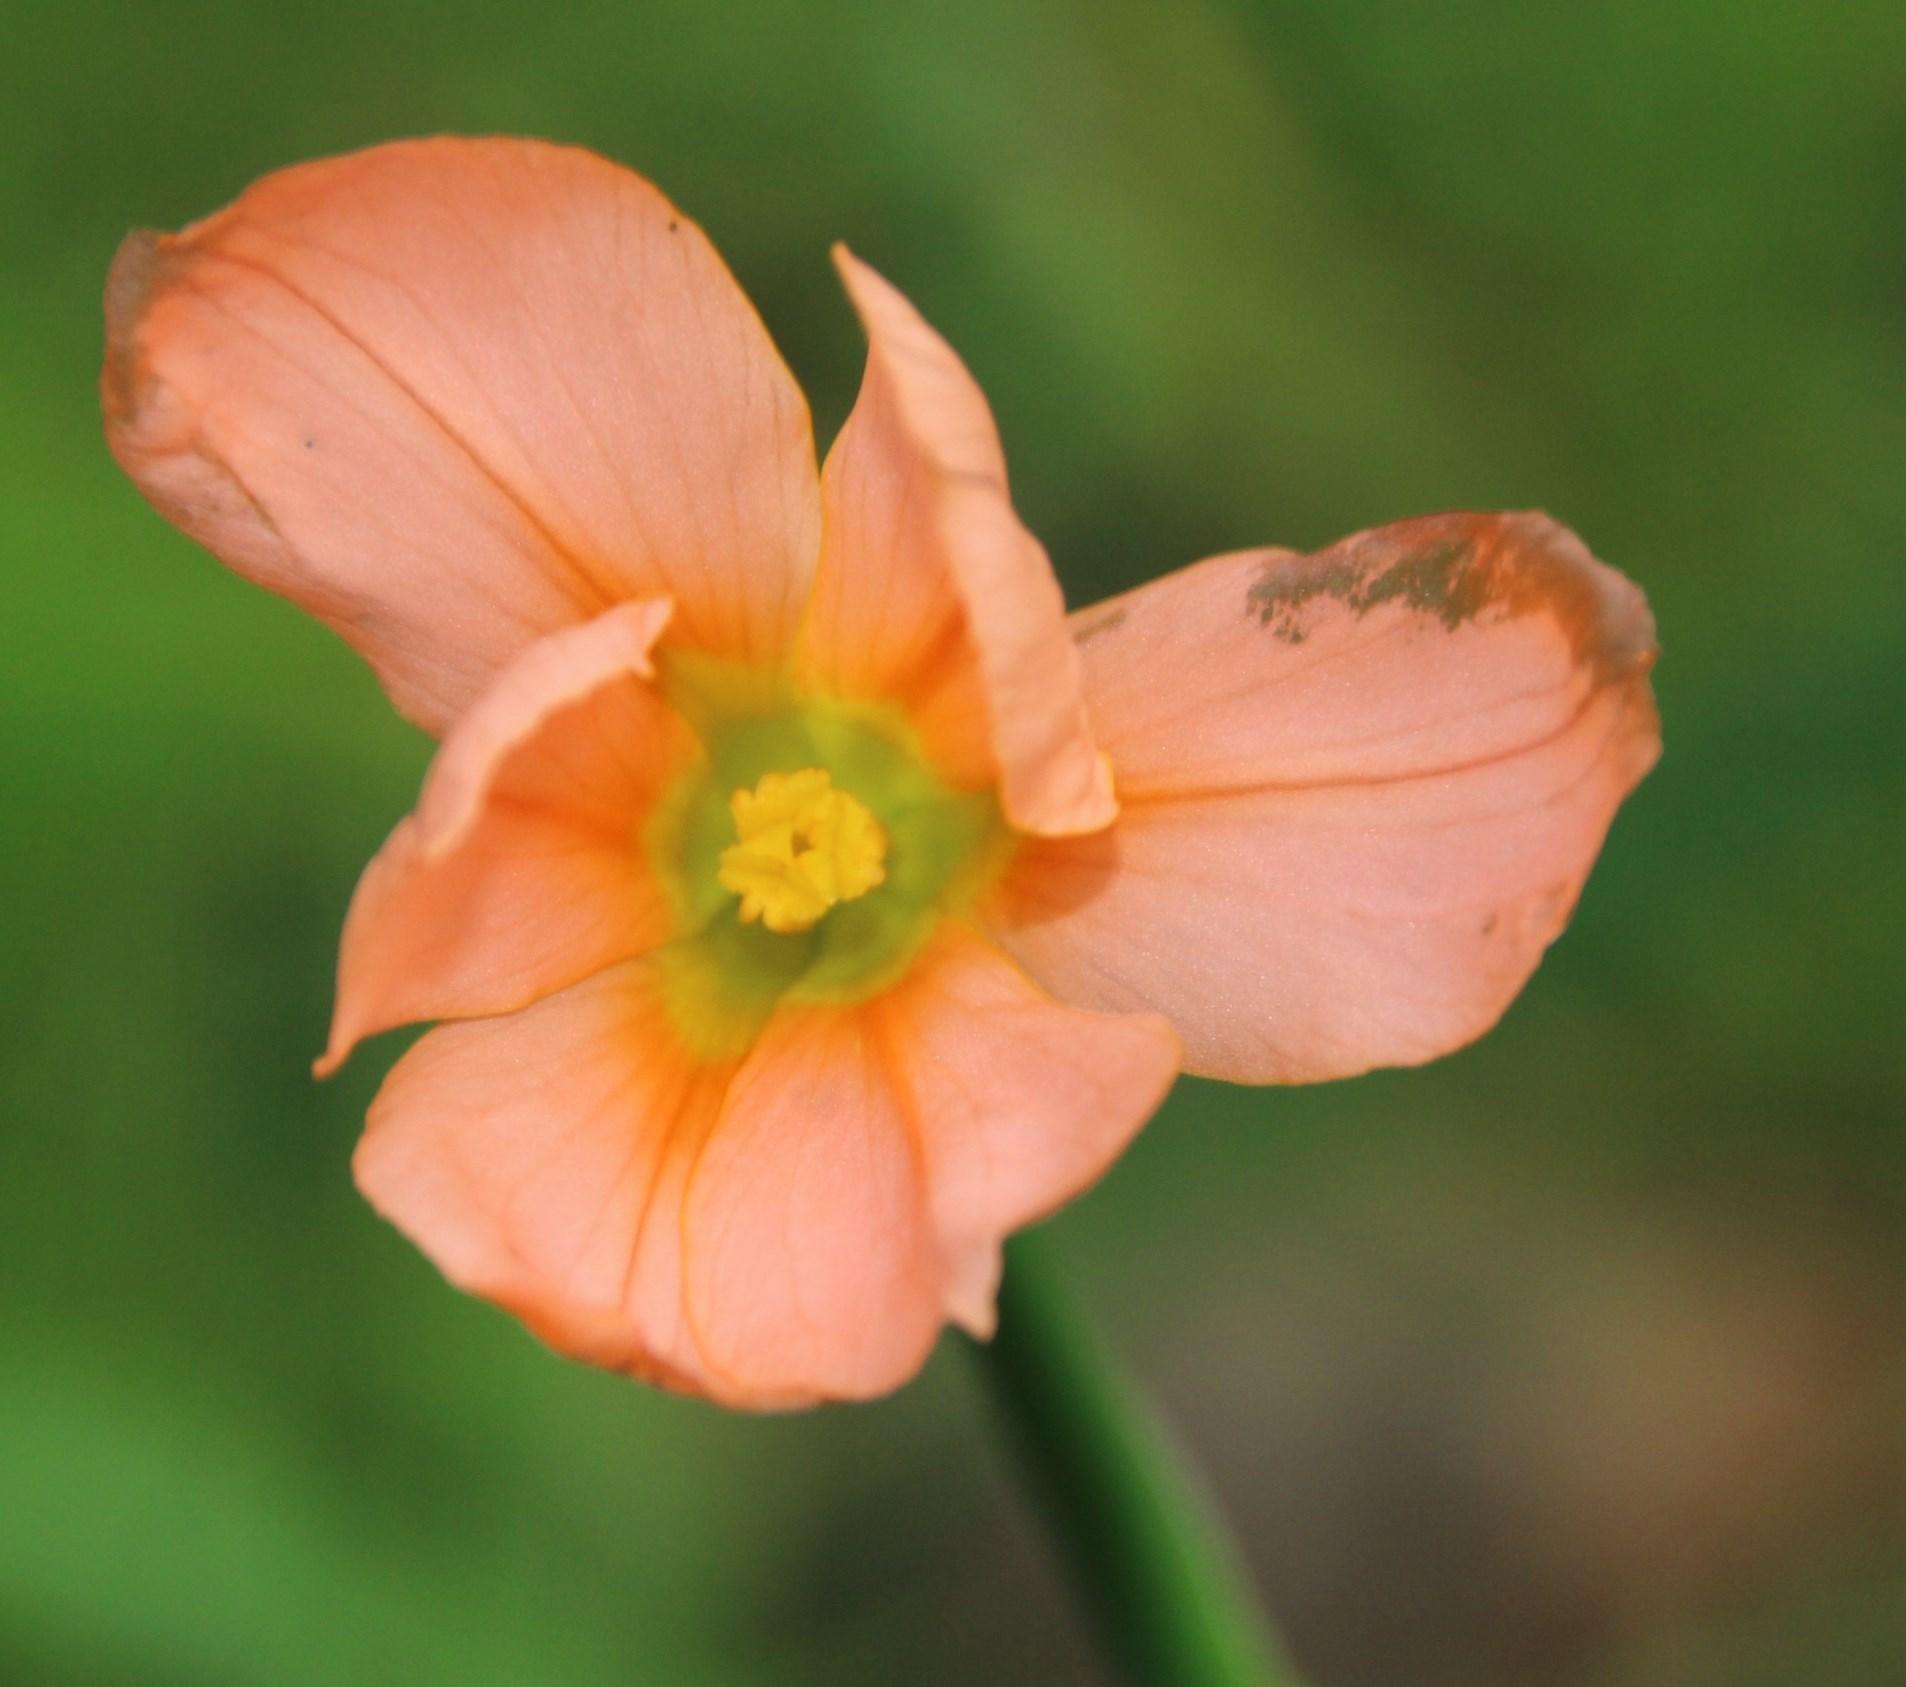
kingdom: Plantae
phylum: Tracheophyta
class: Liliopsida
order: Asparagales
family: Iridaceae
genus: Moraea
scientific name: Moraea collina
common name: Cape-tulip
